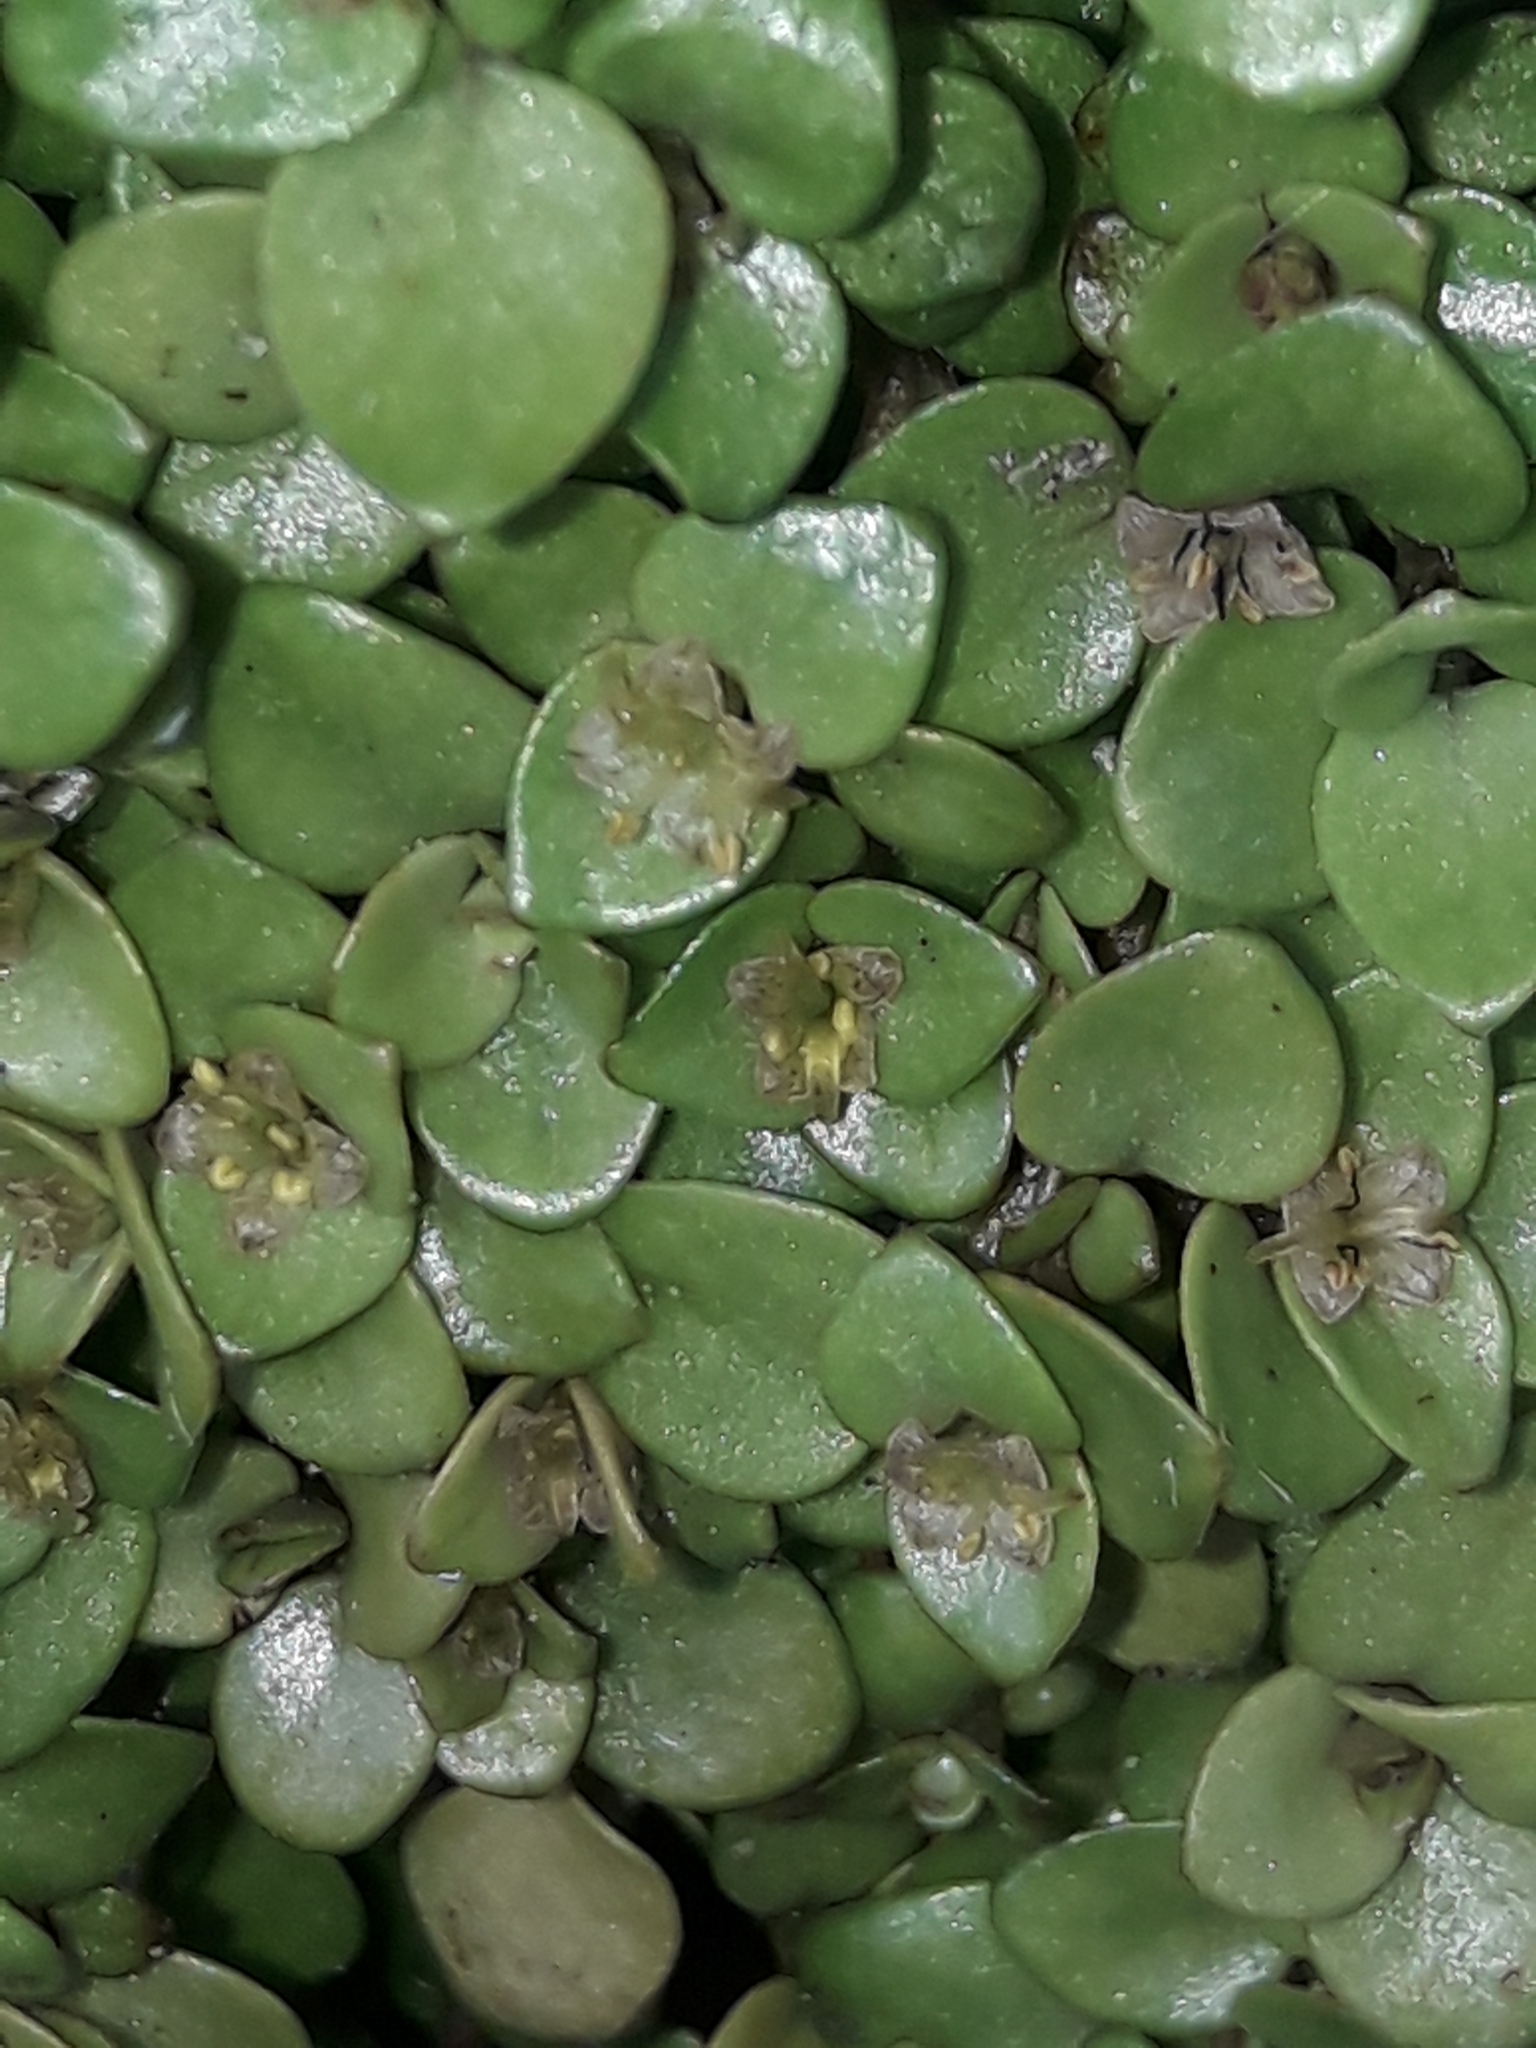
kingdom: Plantae
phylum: Tracheophyta
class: Magnoliopsida
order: Gentianales
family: Rubiaceae
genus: Nertera
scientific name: Nertera granadensis
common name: Beadplant
